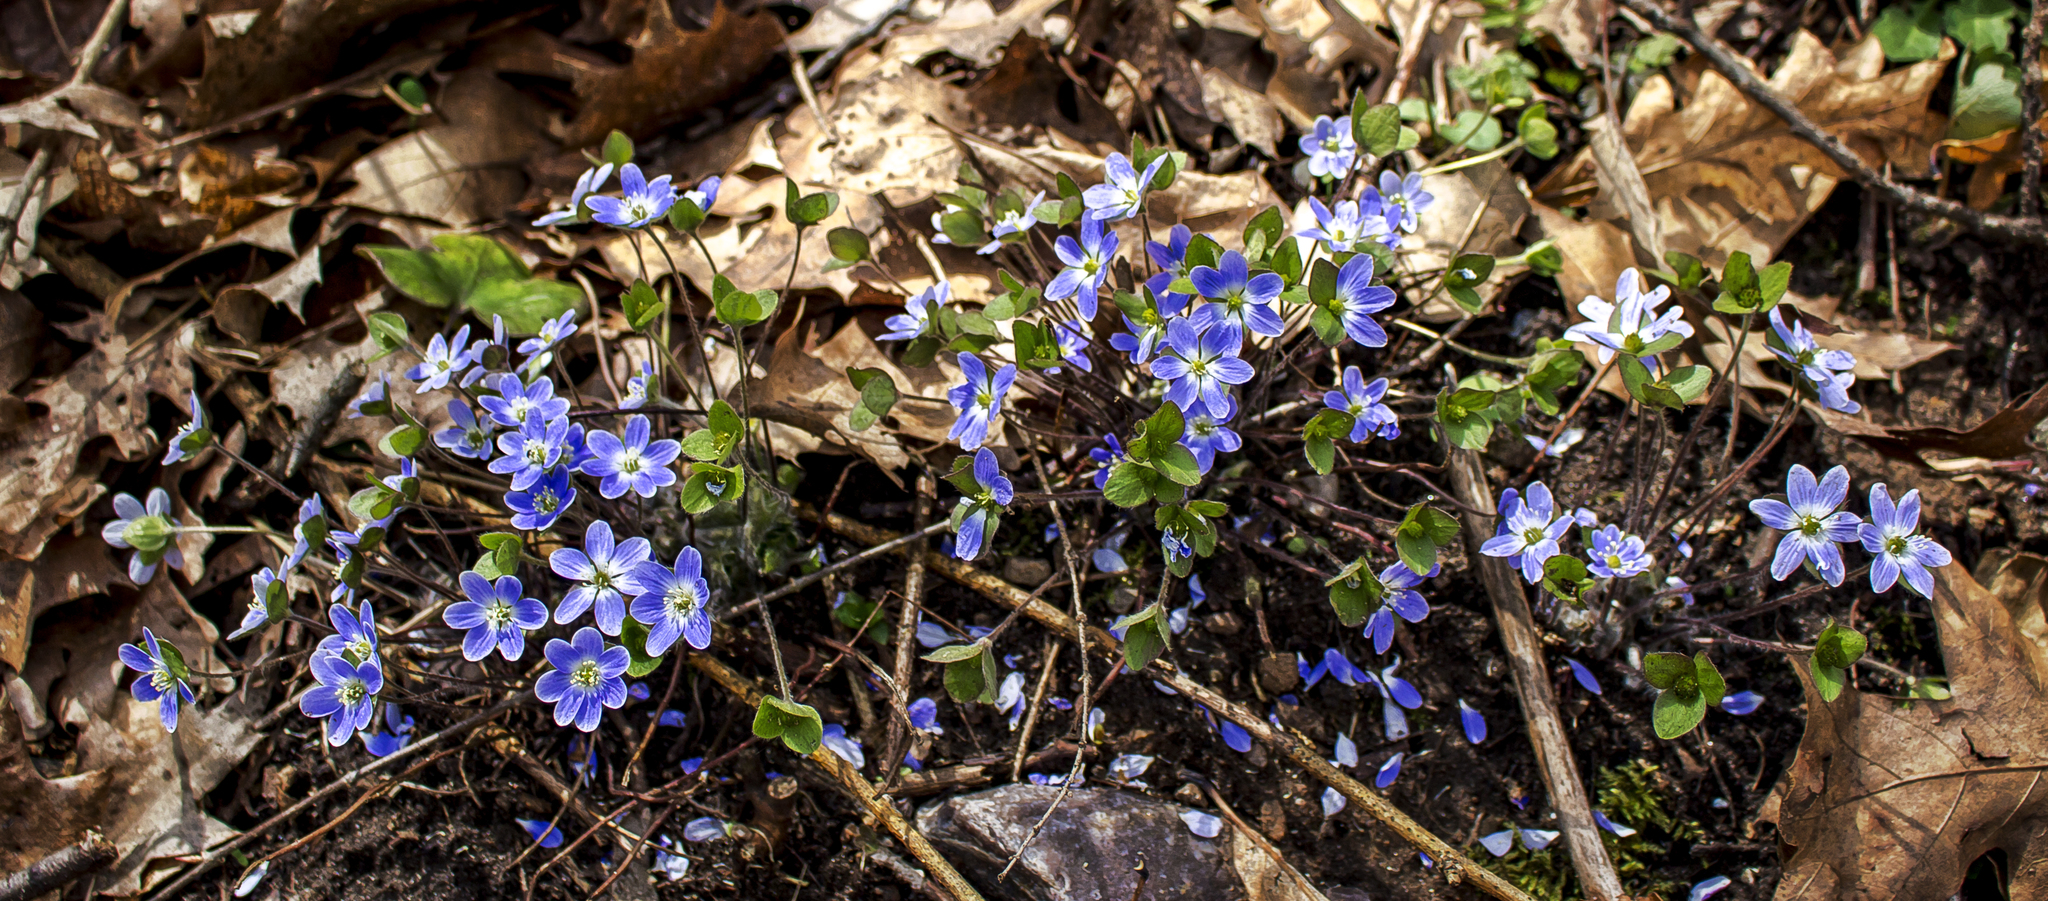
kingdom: Plantae
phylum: Tracheophyta
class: Magnoliopsida
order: Ranunculales
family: Ranunculaceae
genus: Hepatica
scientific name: Hepatica americana
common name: American hepatica
